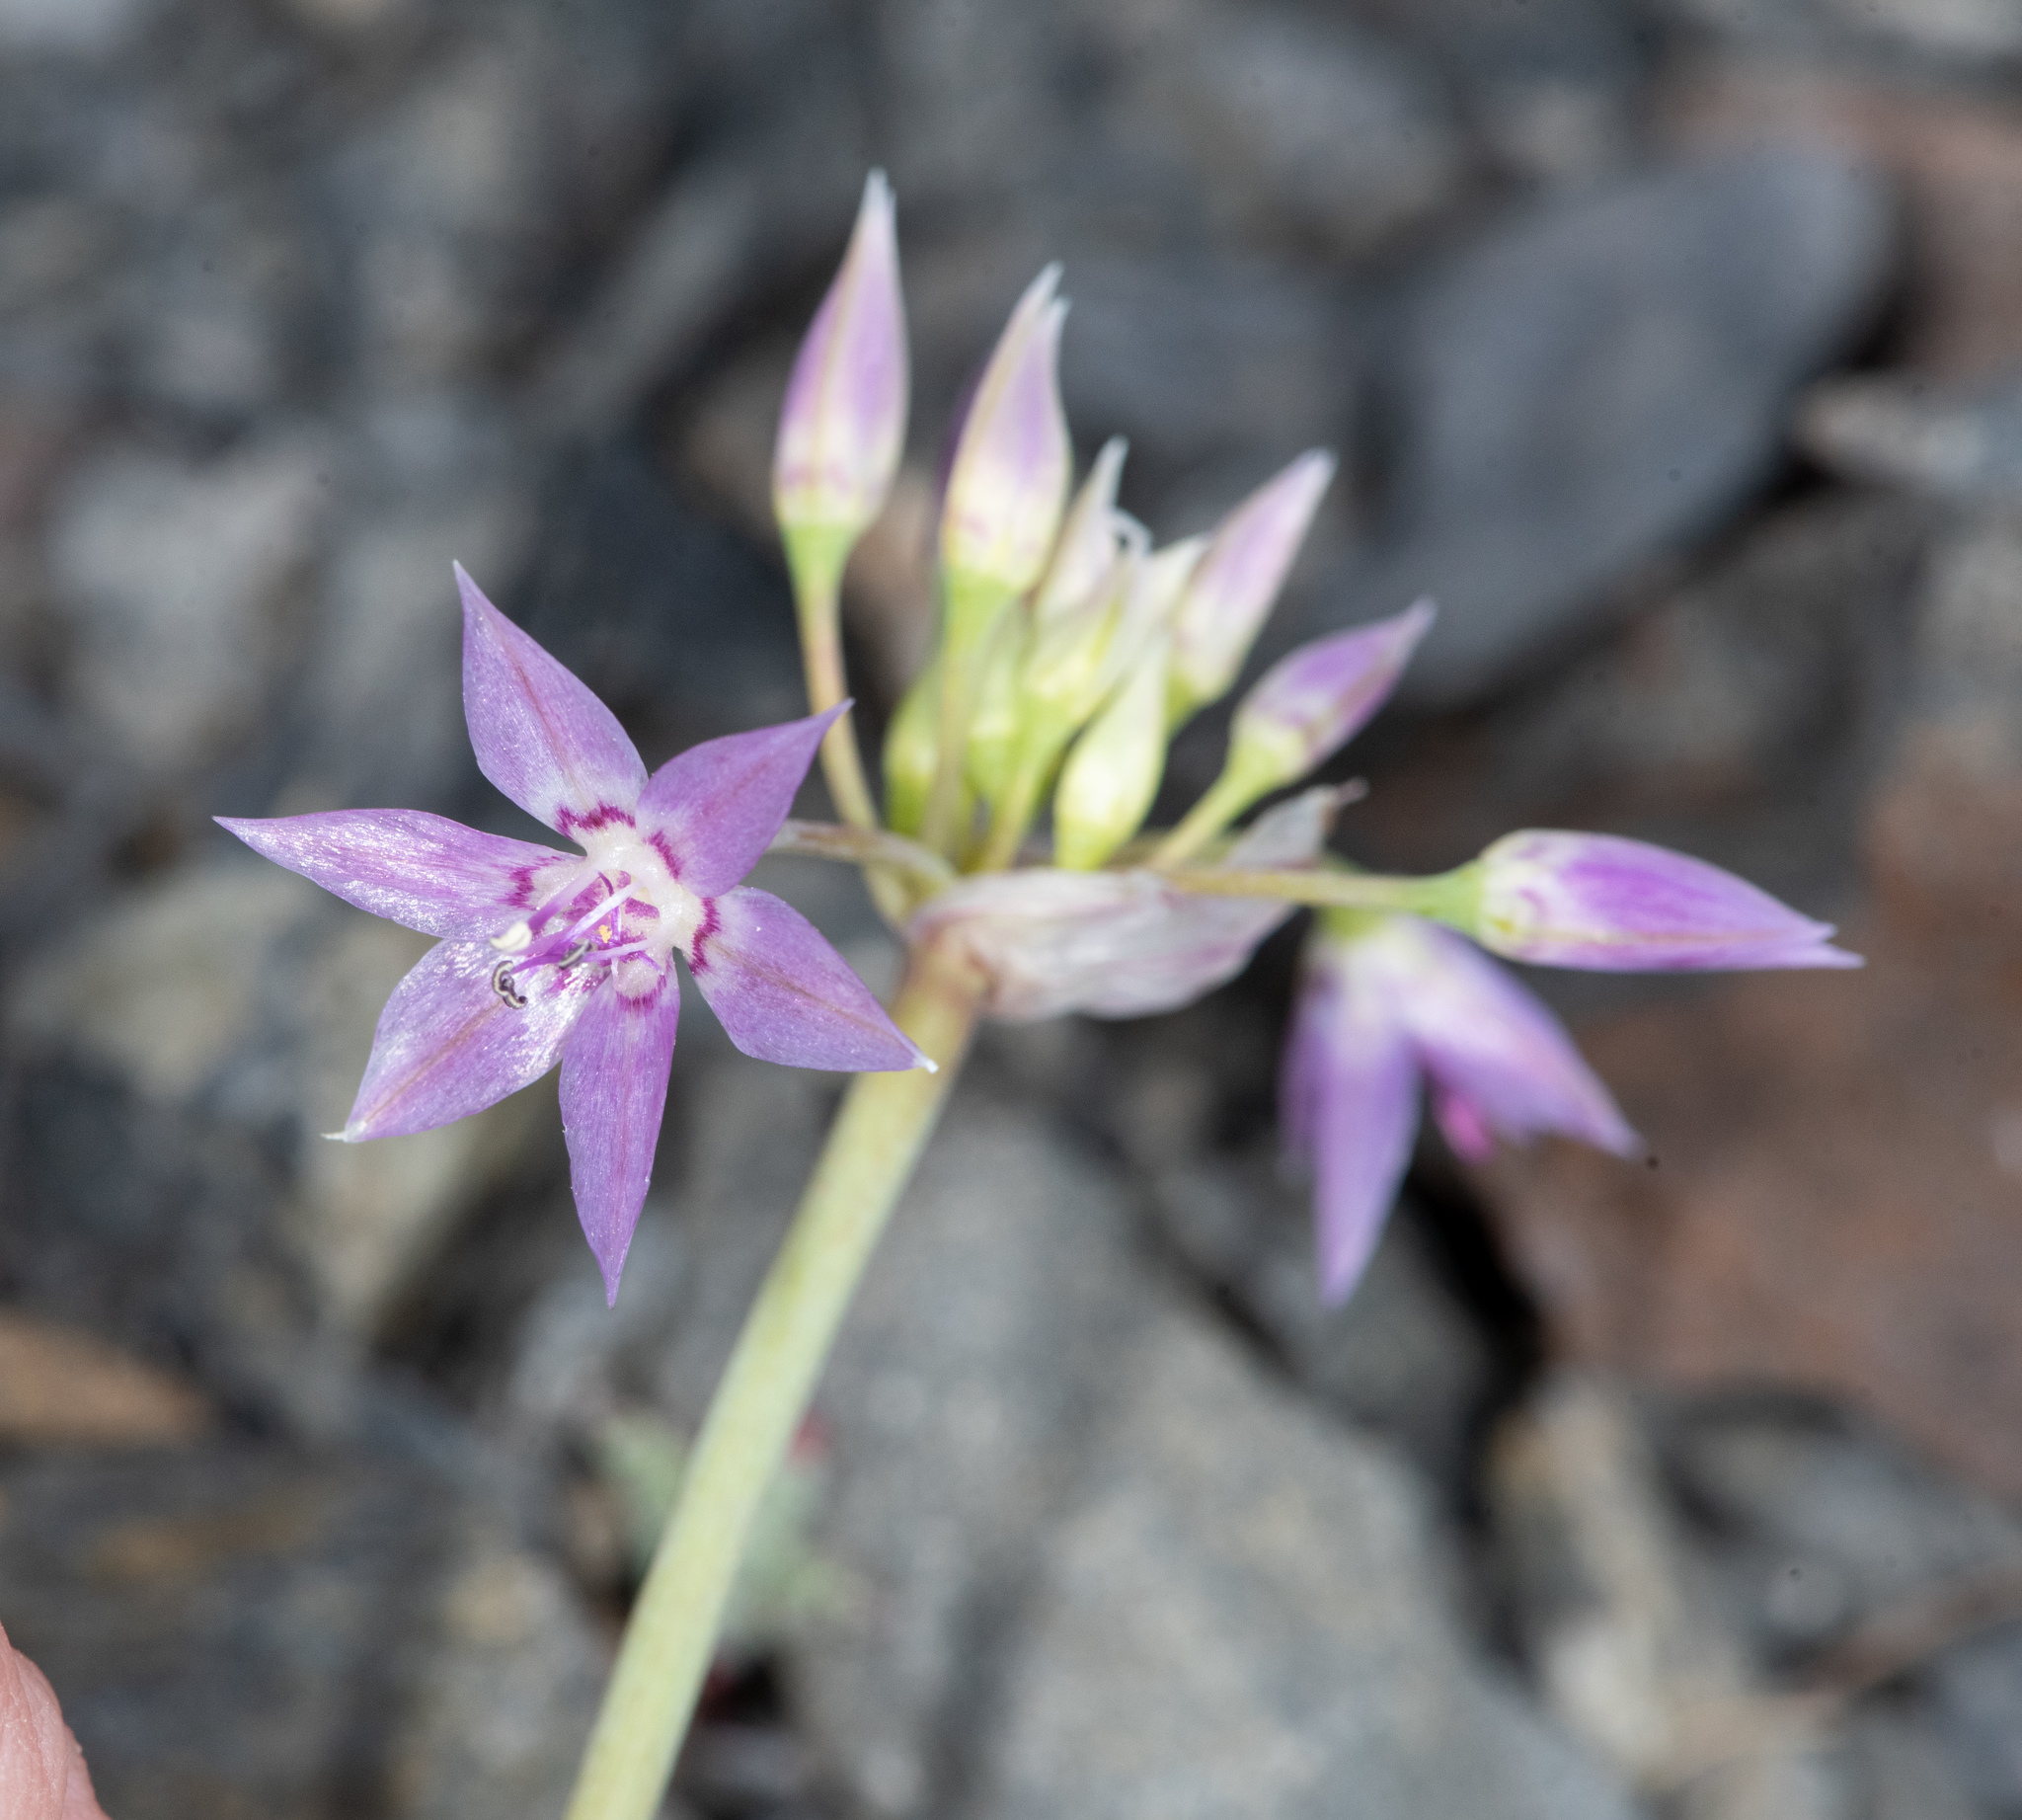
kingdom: Plantae
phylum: Tracheophyta
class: Liliopsida
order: Asparagales
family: Amaryllidaceae
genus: Allium
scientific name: Allium campanulatum
